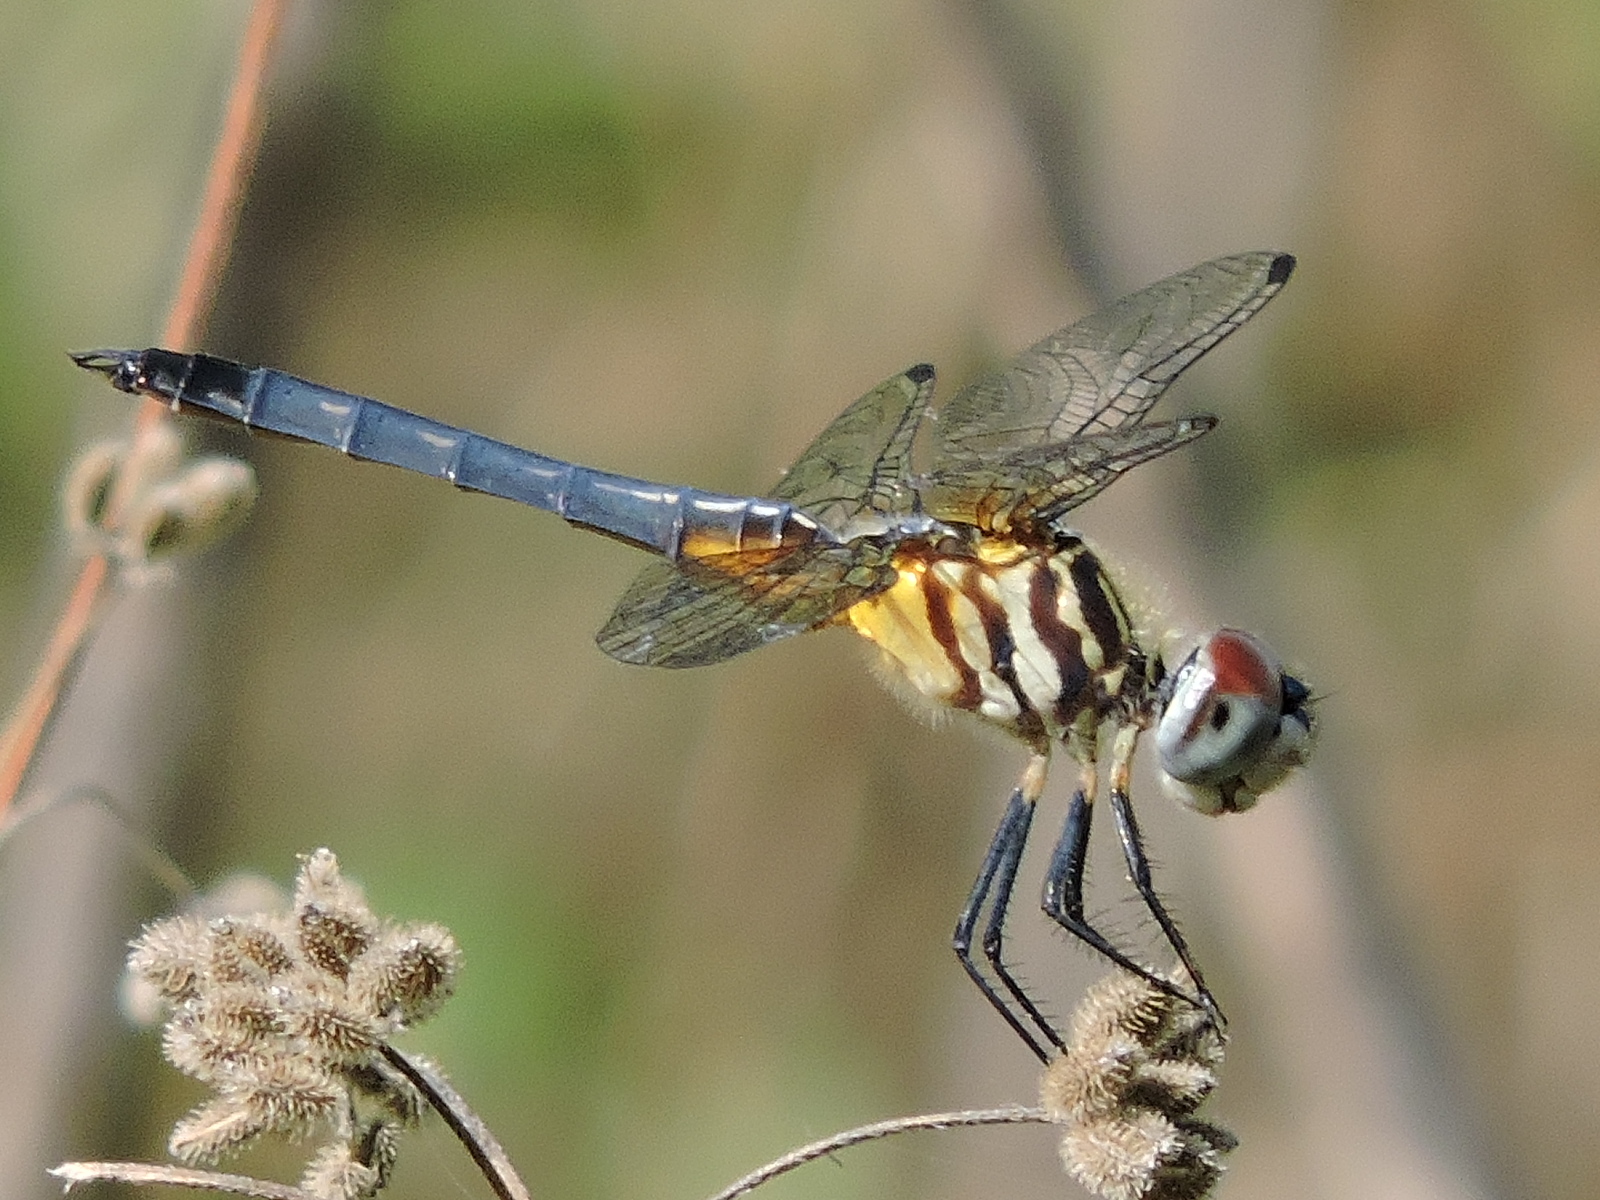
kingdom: Animalia
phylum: Arthropoda
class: Insecta
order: Odonata
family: Libellulidae
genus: Pachydiplax
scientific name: Pachydiplax longipennis
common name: Blue dasher
